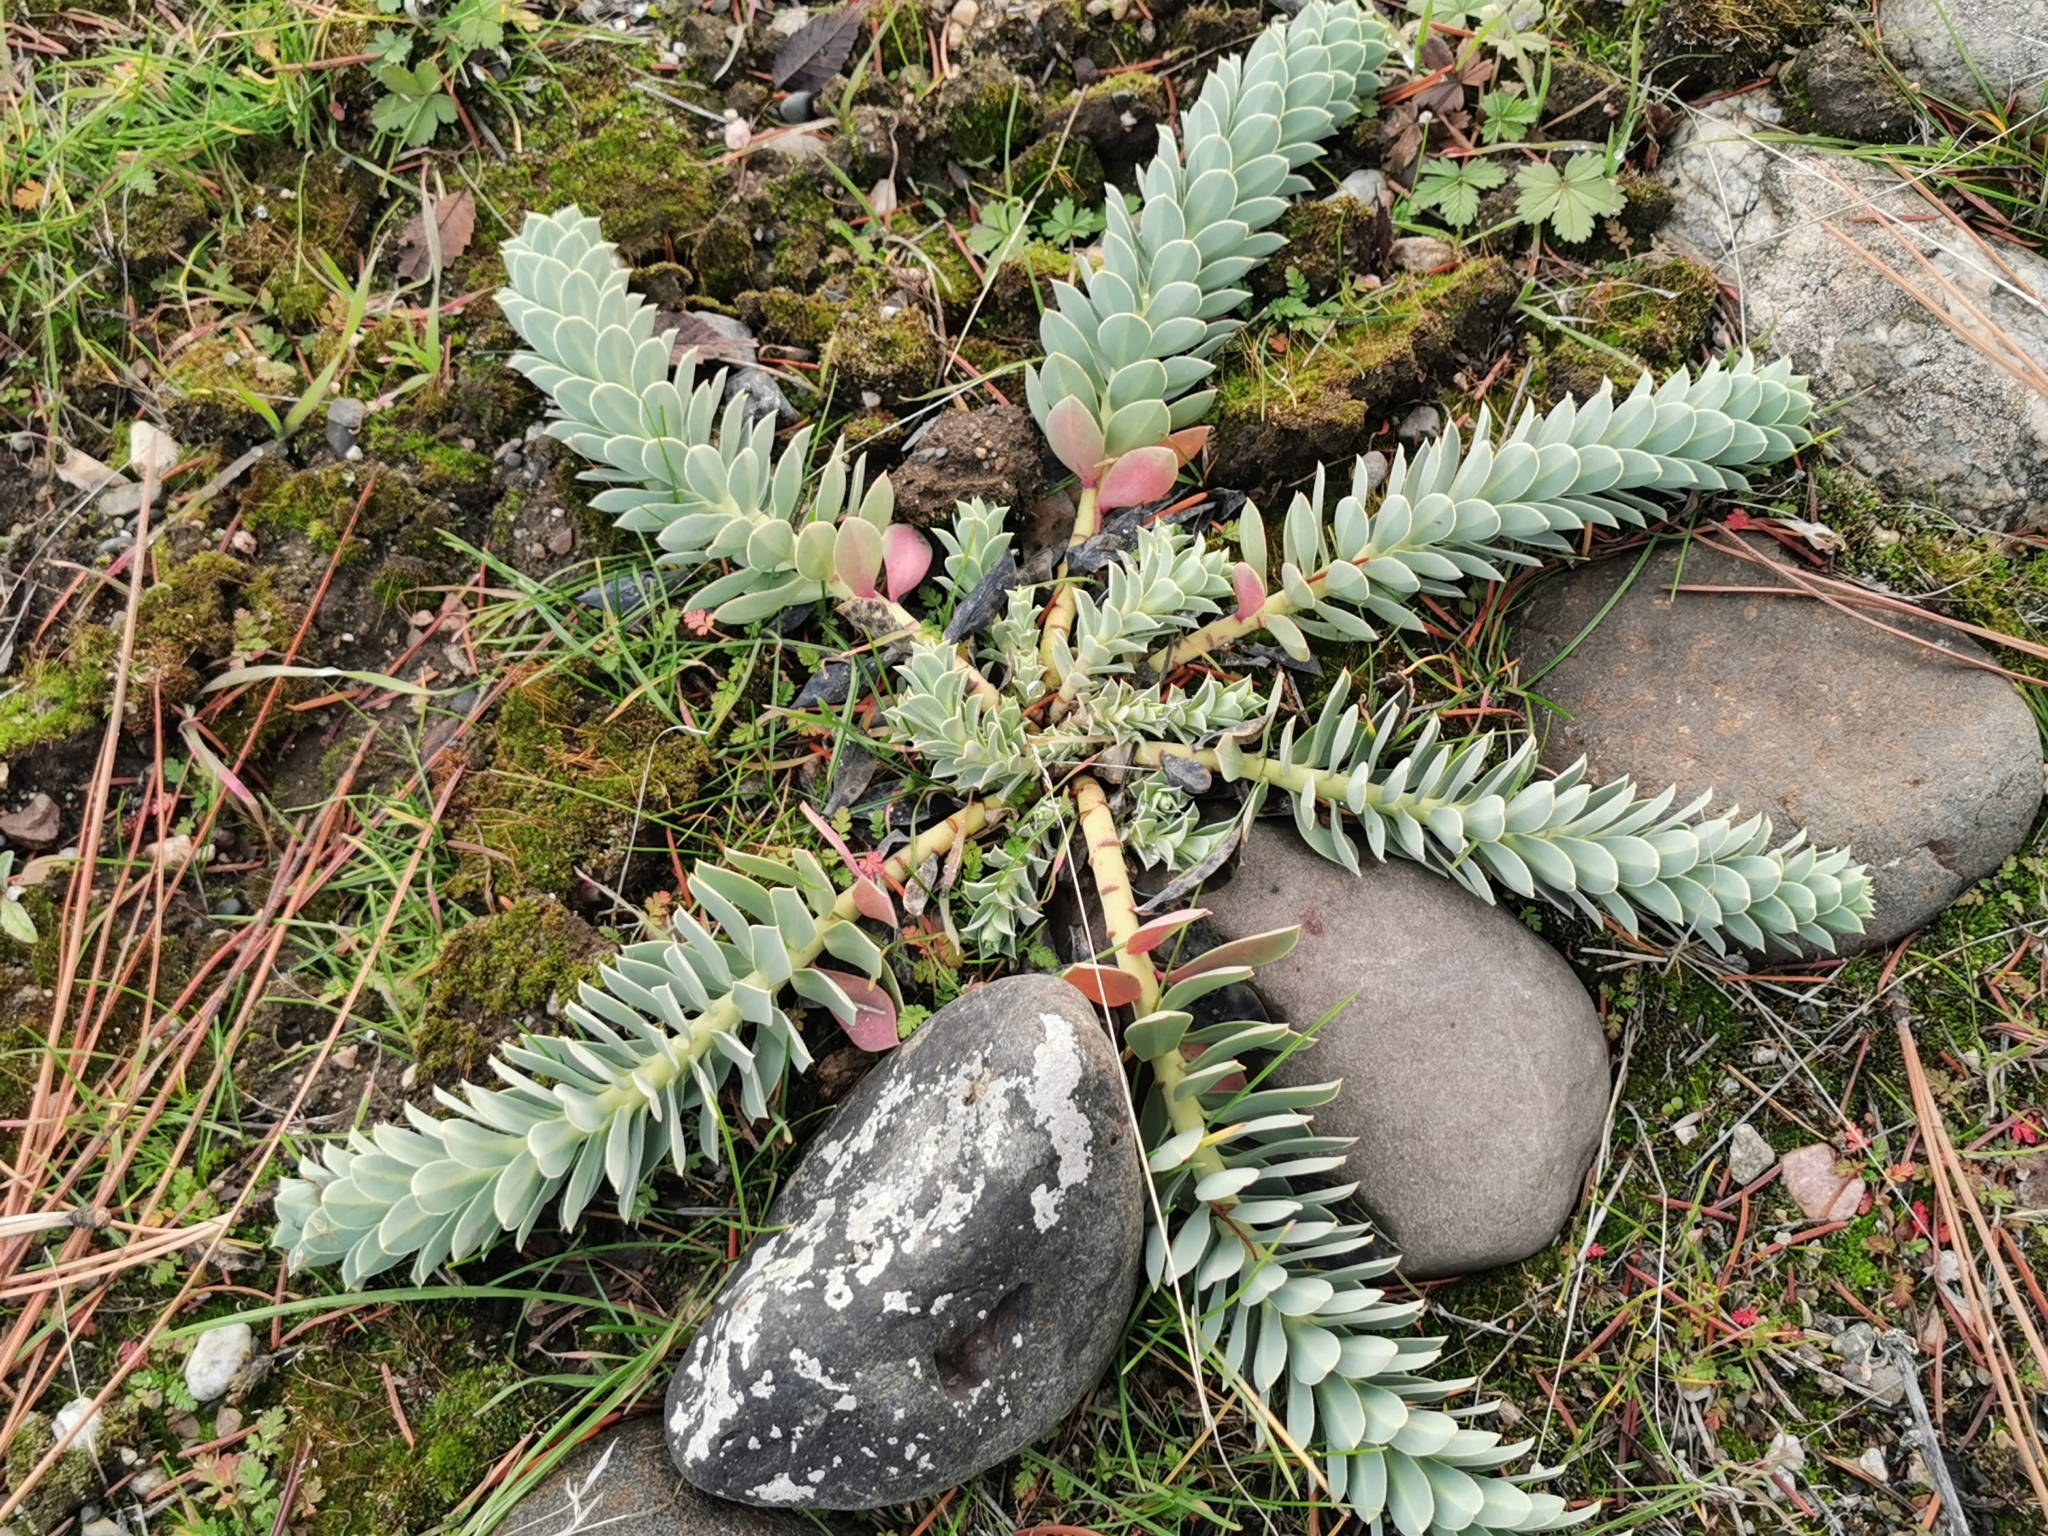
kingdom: Plantae
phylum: Tracheophyta
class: Magnoliopsida
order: Malpighiales
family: Euphorbiaceae
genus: Euphorbia
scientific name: Euphorbia myrsinites
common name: Myrtle spurge
